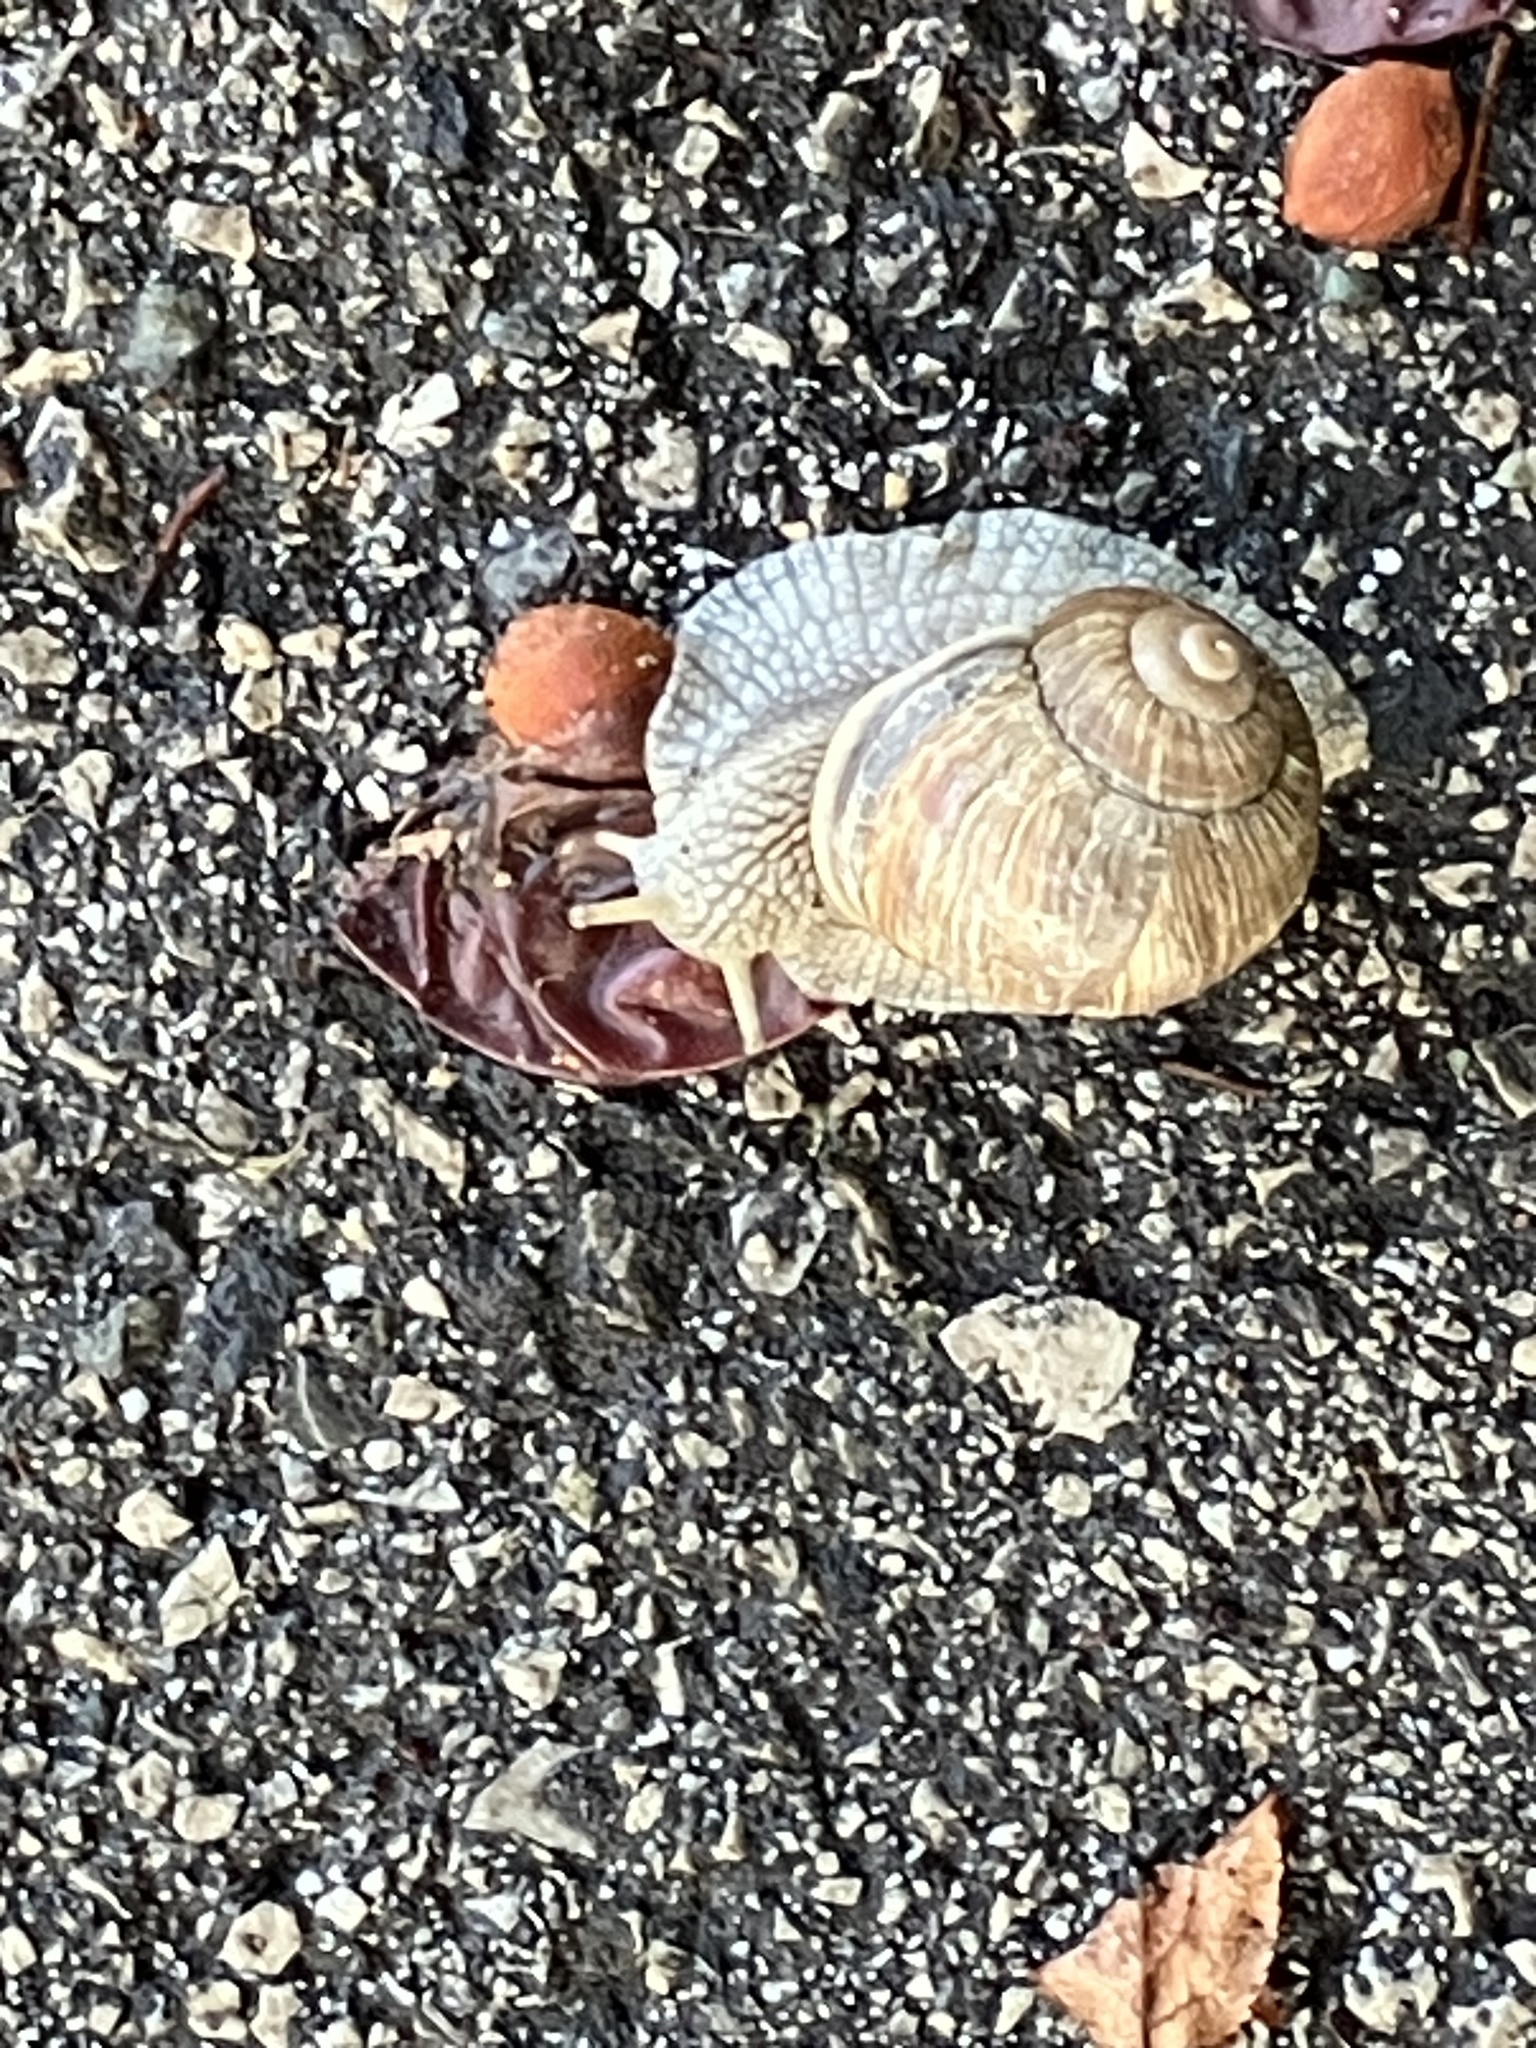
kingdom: Animalia
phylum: Mollusca
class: Gastropoda
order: Stylommatophora
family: Helicidae
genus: Helix
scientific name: Helix pomatia
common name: Roman snail
